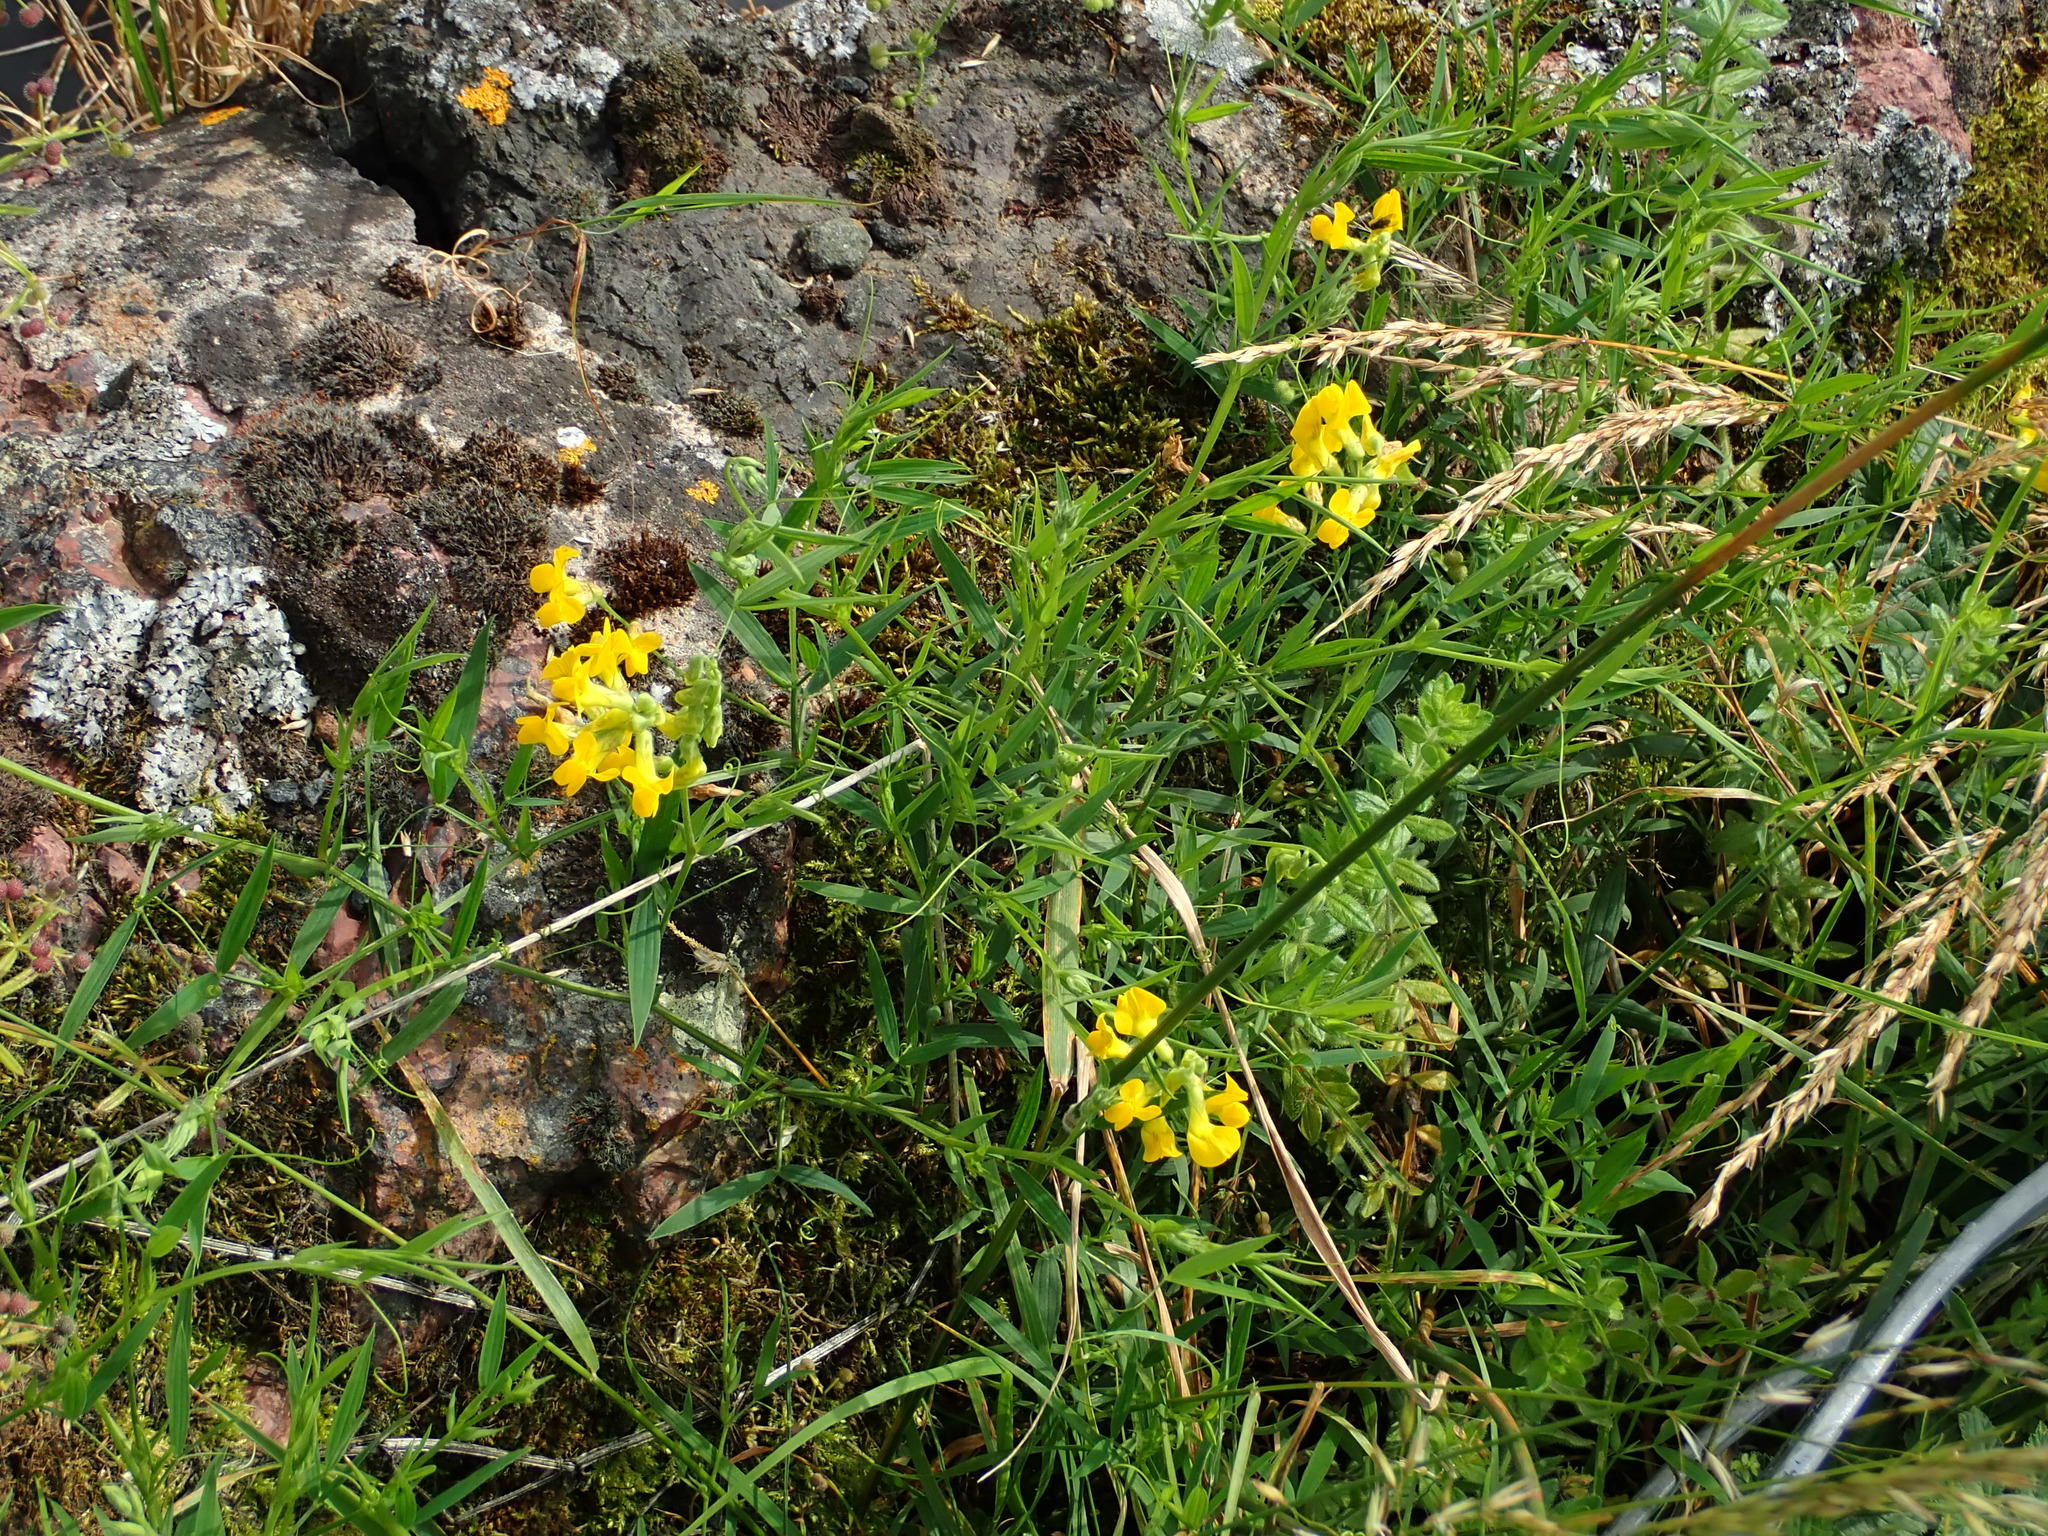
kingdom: Plantae
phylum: Tracheophyta
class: Magnoliopsida
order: Fabales
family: Fabaceae
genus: Lathyrus
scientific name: Lathyrus pratensis
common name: Meadow vetchling
